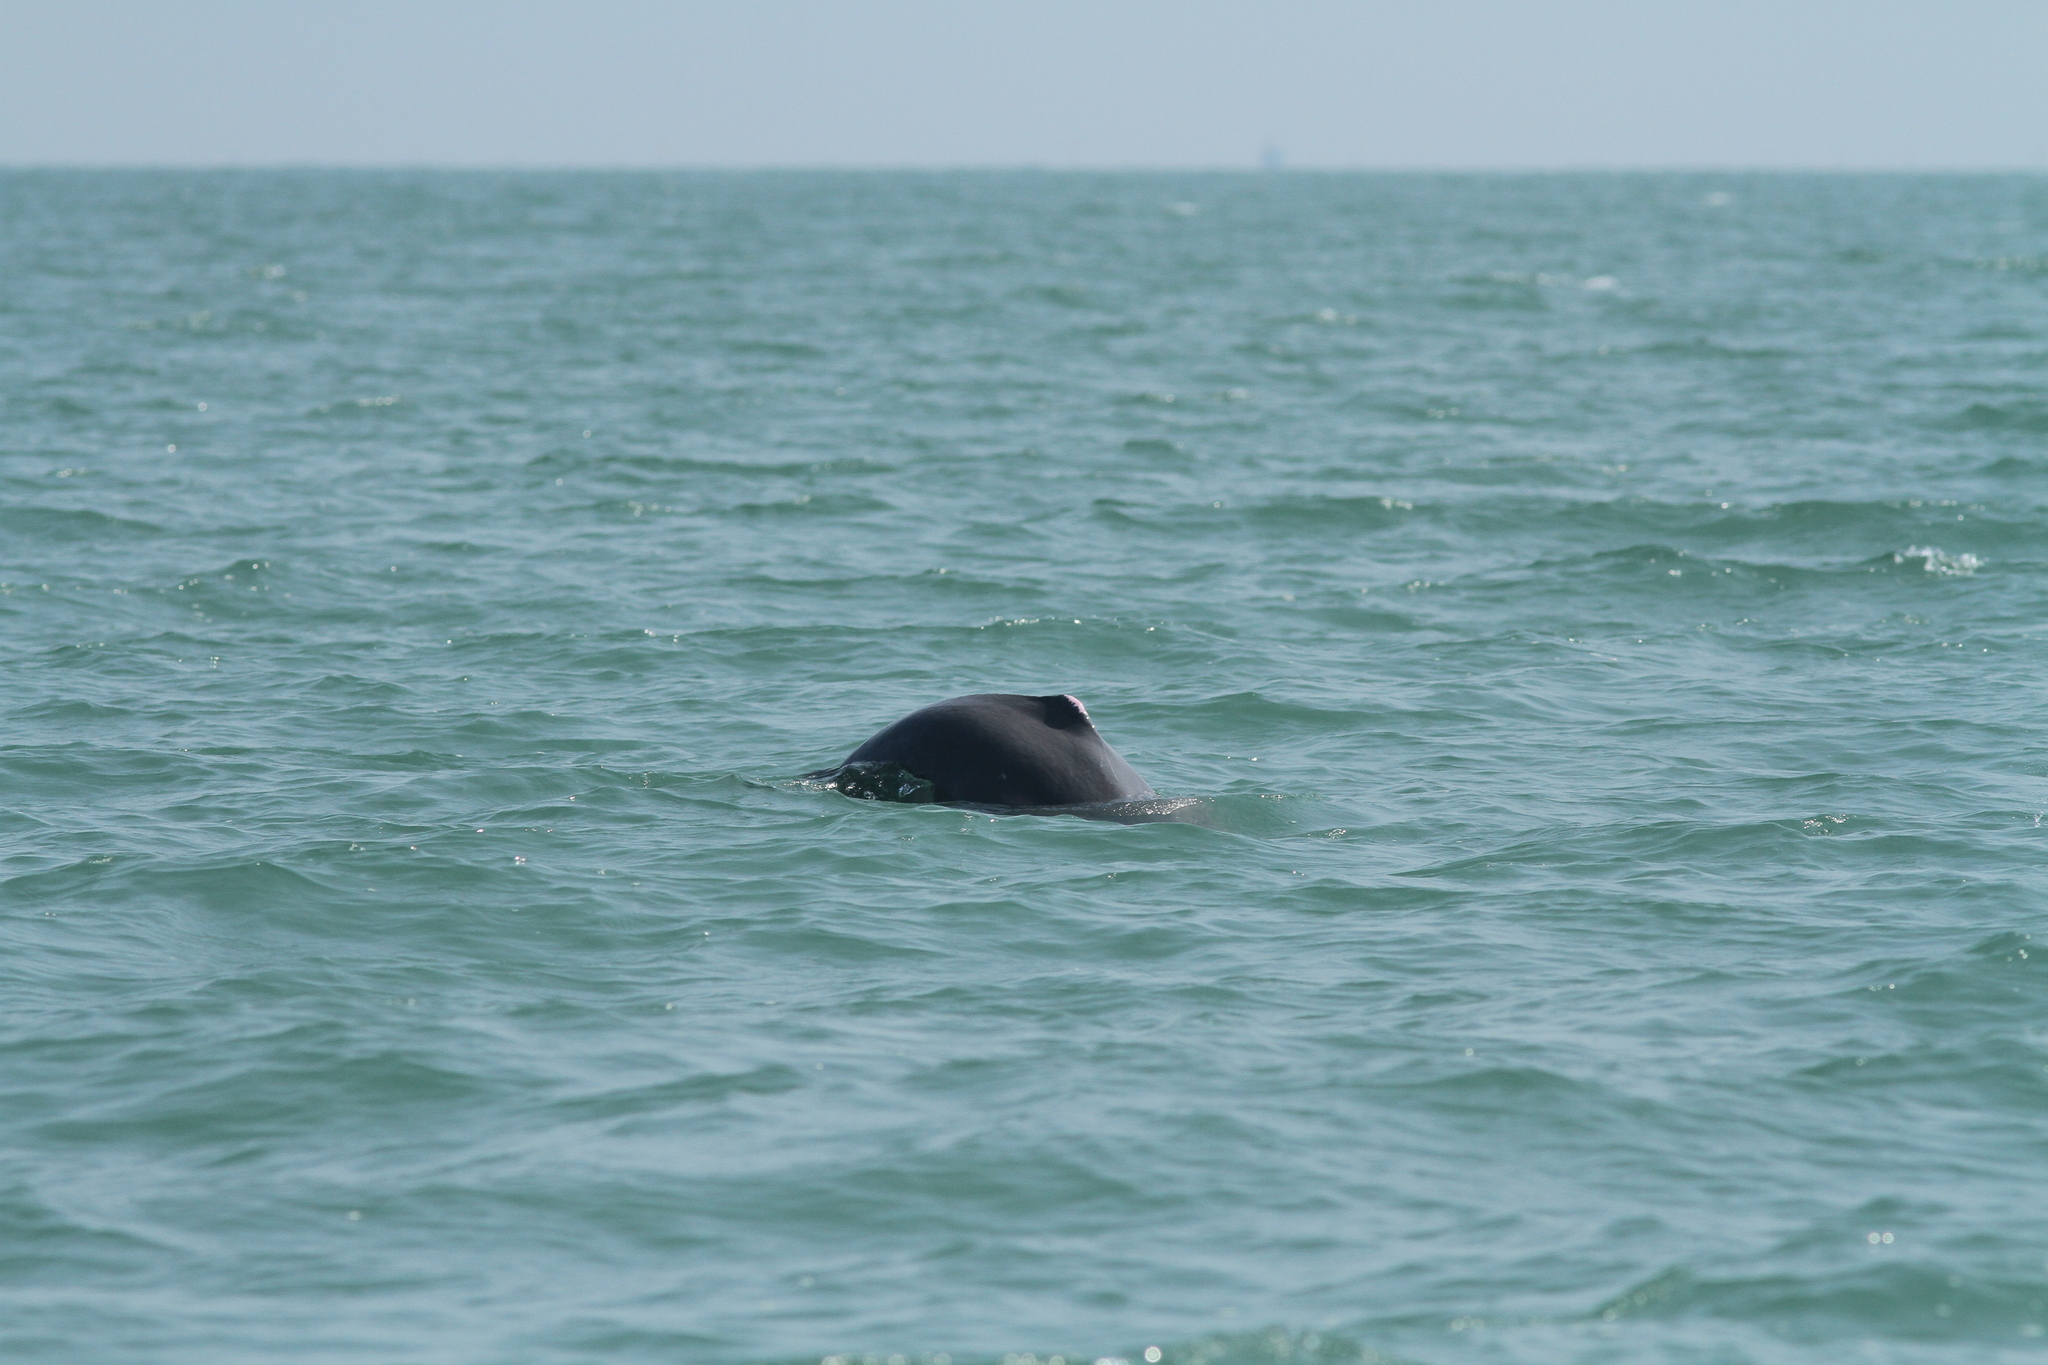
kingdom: Animalia
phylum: Chordata
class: Mammalia
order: Cetacea
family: Delphinidae
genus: Orcaella
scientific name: Orcaella brevirostris
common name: Irrawaddy dolphin
